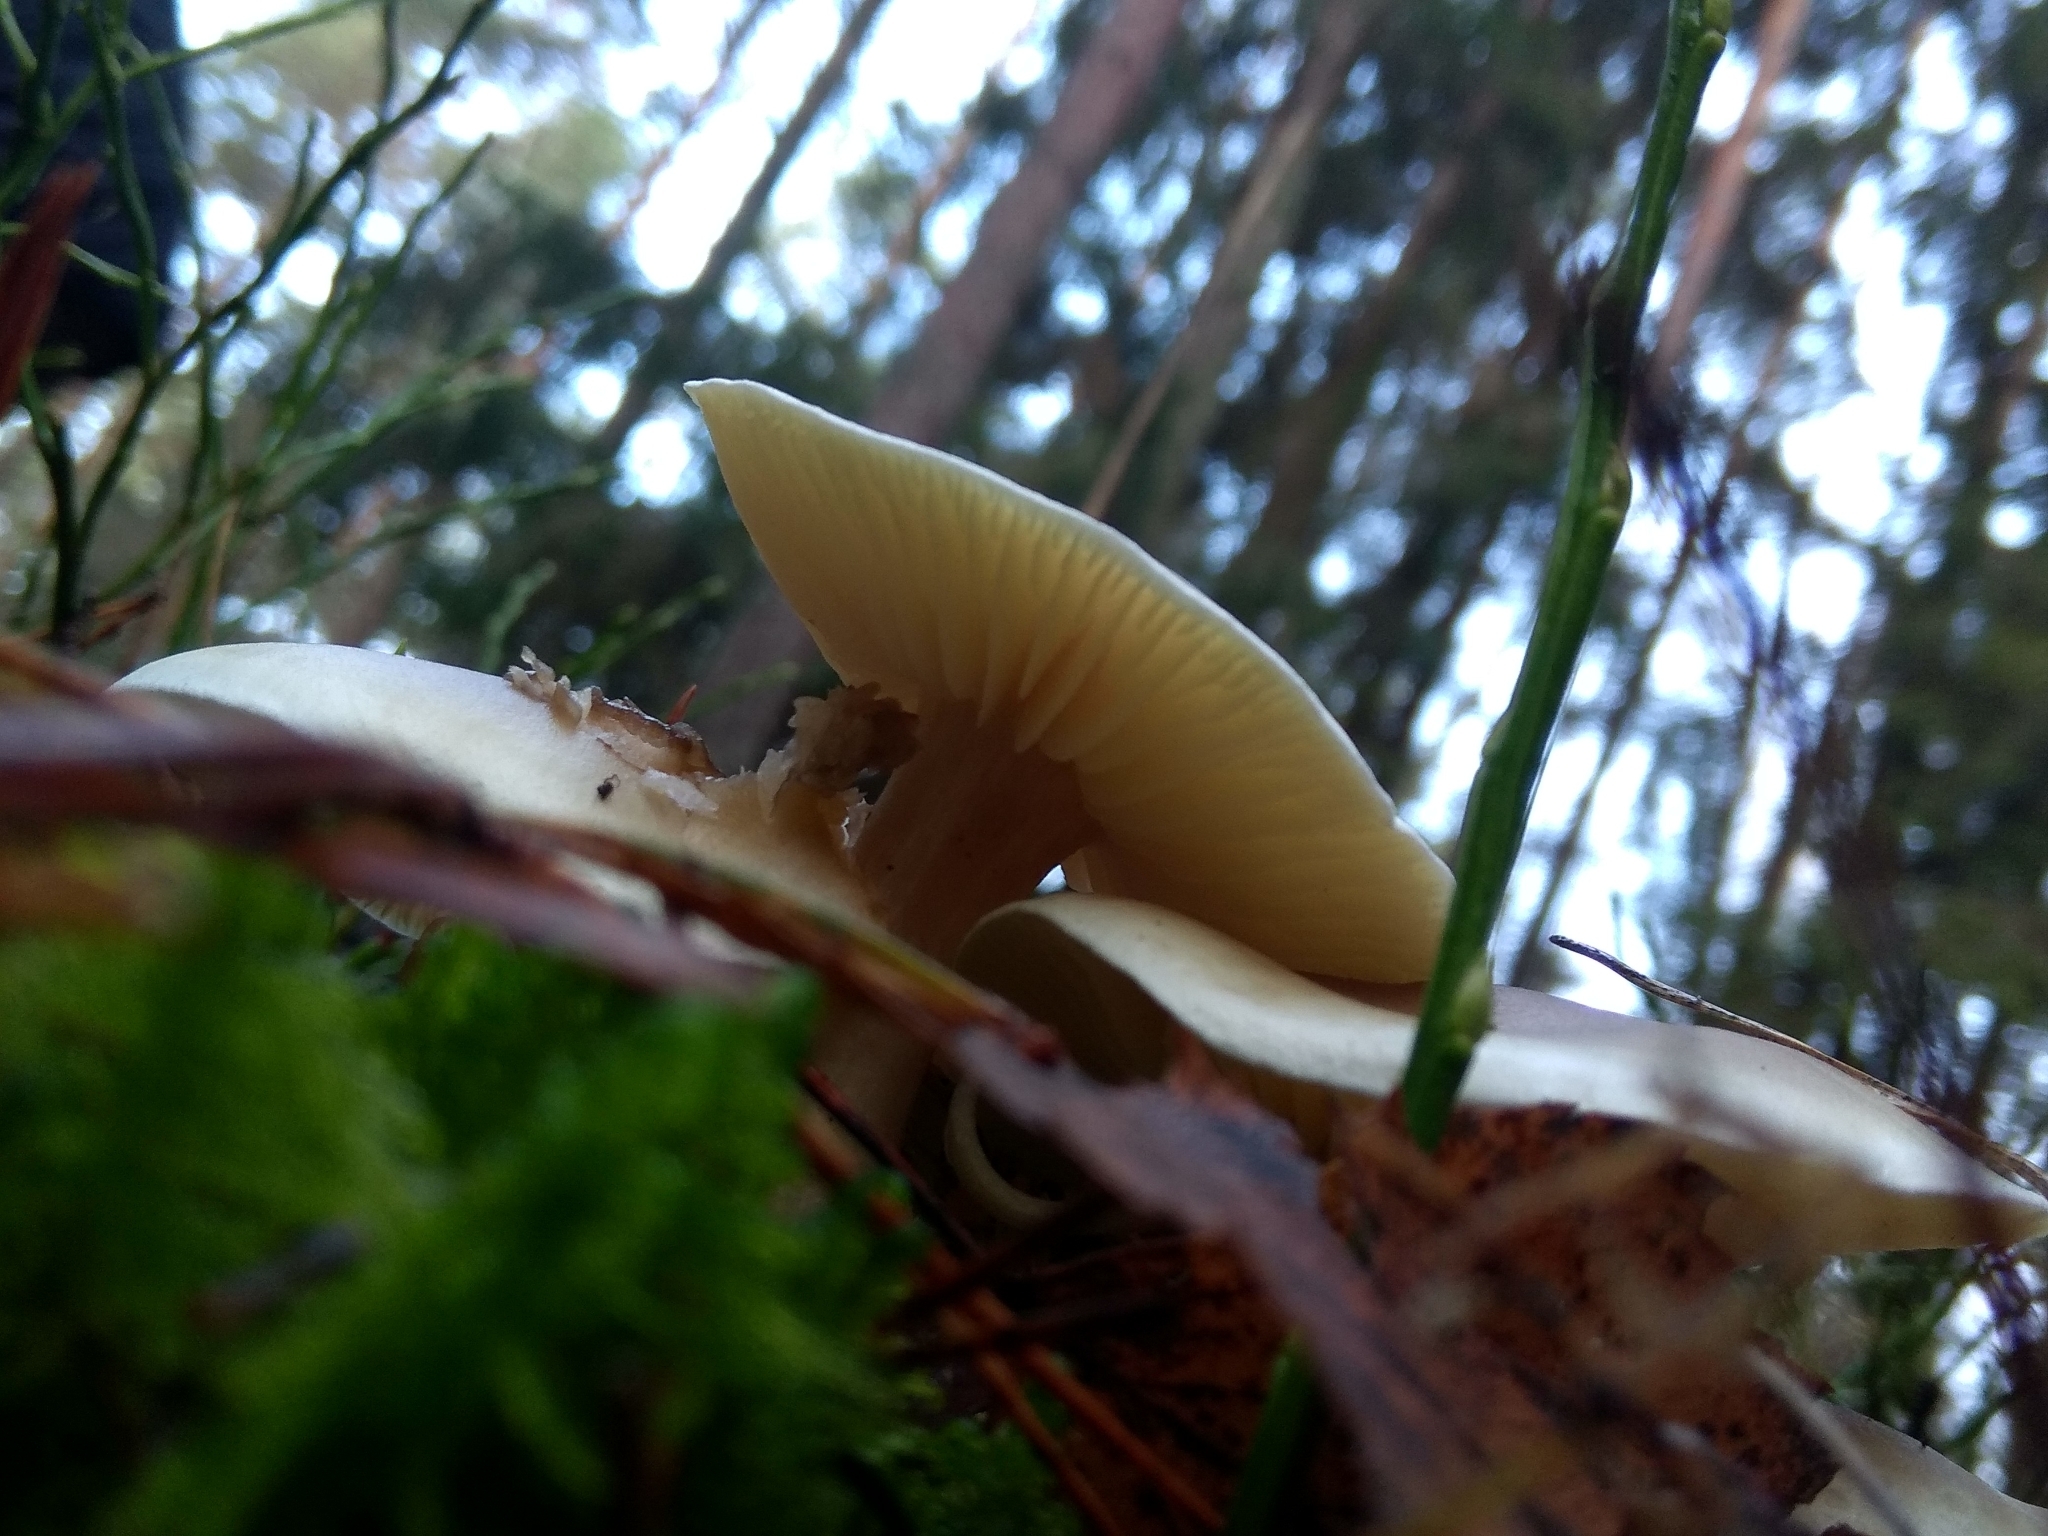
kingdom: Fungi
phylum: Basidiomycota
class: Agaricomycetes
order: Agaricales
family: Tricholomataceae
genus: Clitocybe
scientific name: Clitocybe nebularis
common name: Clouded agaric
